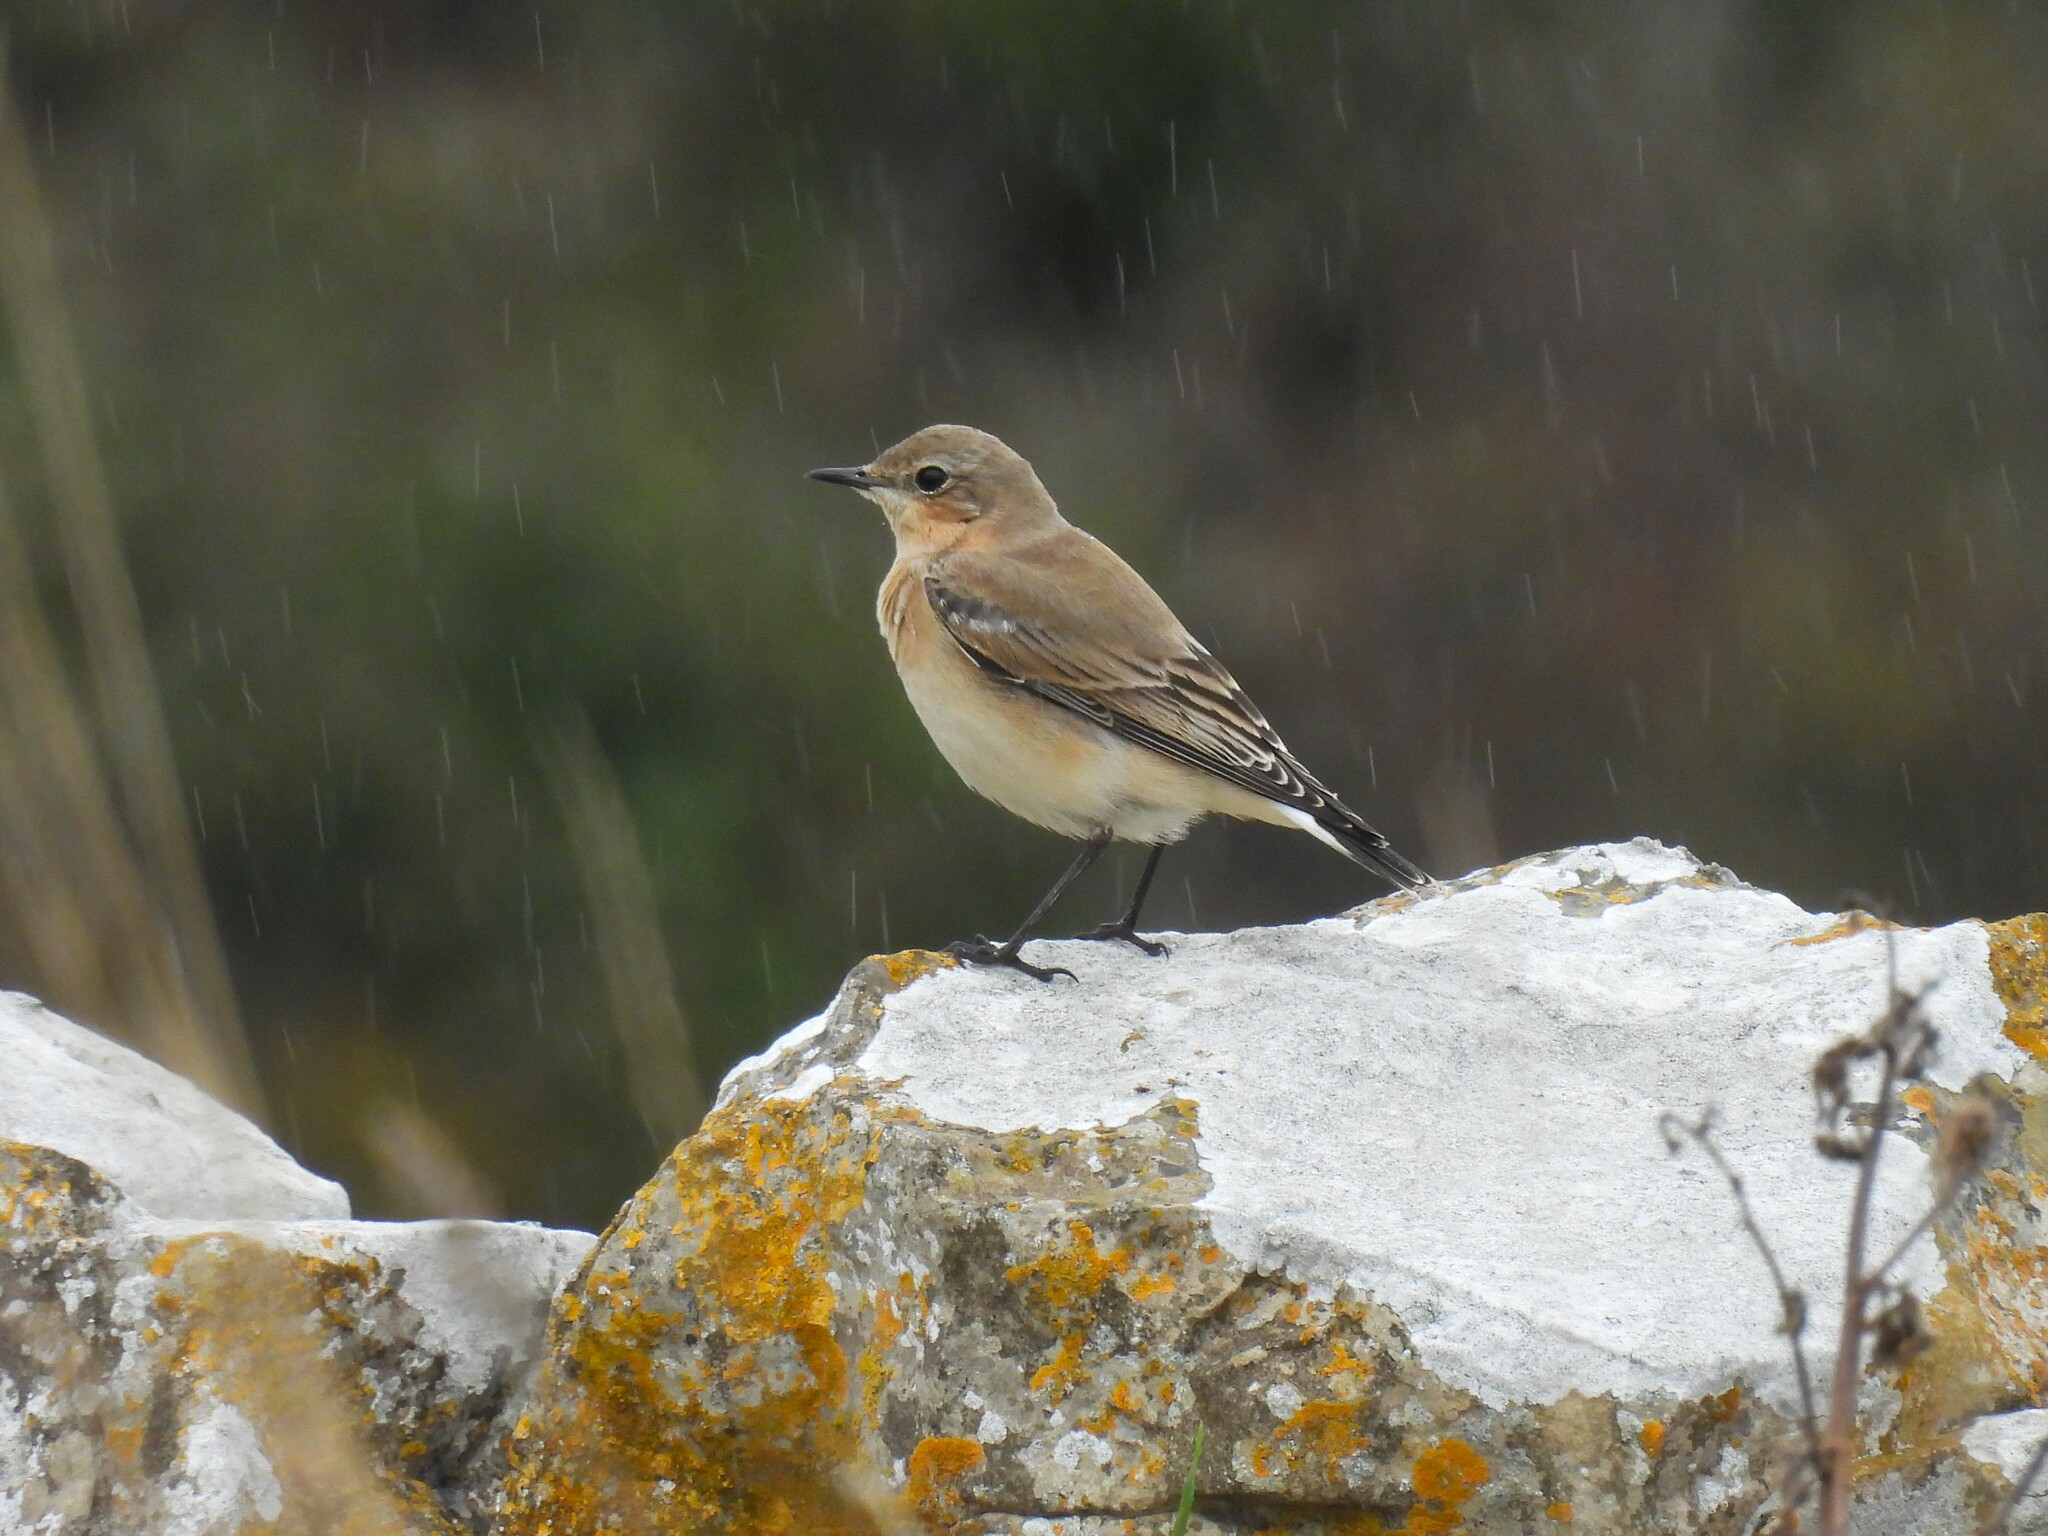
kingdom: Animalia
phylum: Chordata
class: Aves
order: Passeriformes
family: Muscicapidae
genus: Oenanthe
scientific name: Oenanthe oenanthe
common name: Northern wheatear
